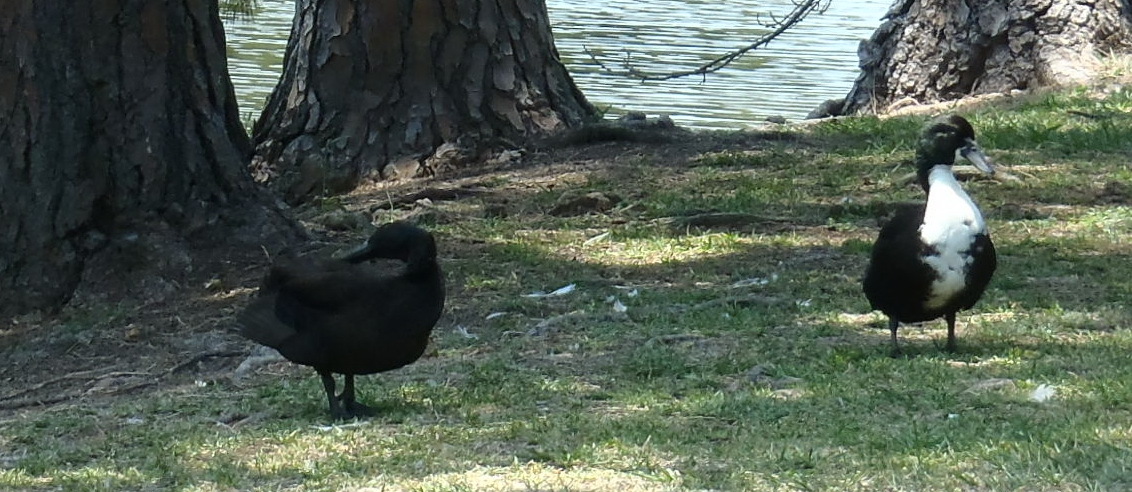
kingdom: Animalia
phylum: Chordata
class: Aves
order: Anseriformes
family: Anatidae
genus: Anas
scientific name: Anas platyrhynchos
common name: Mallard
